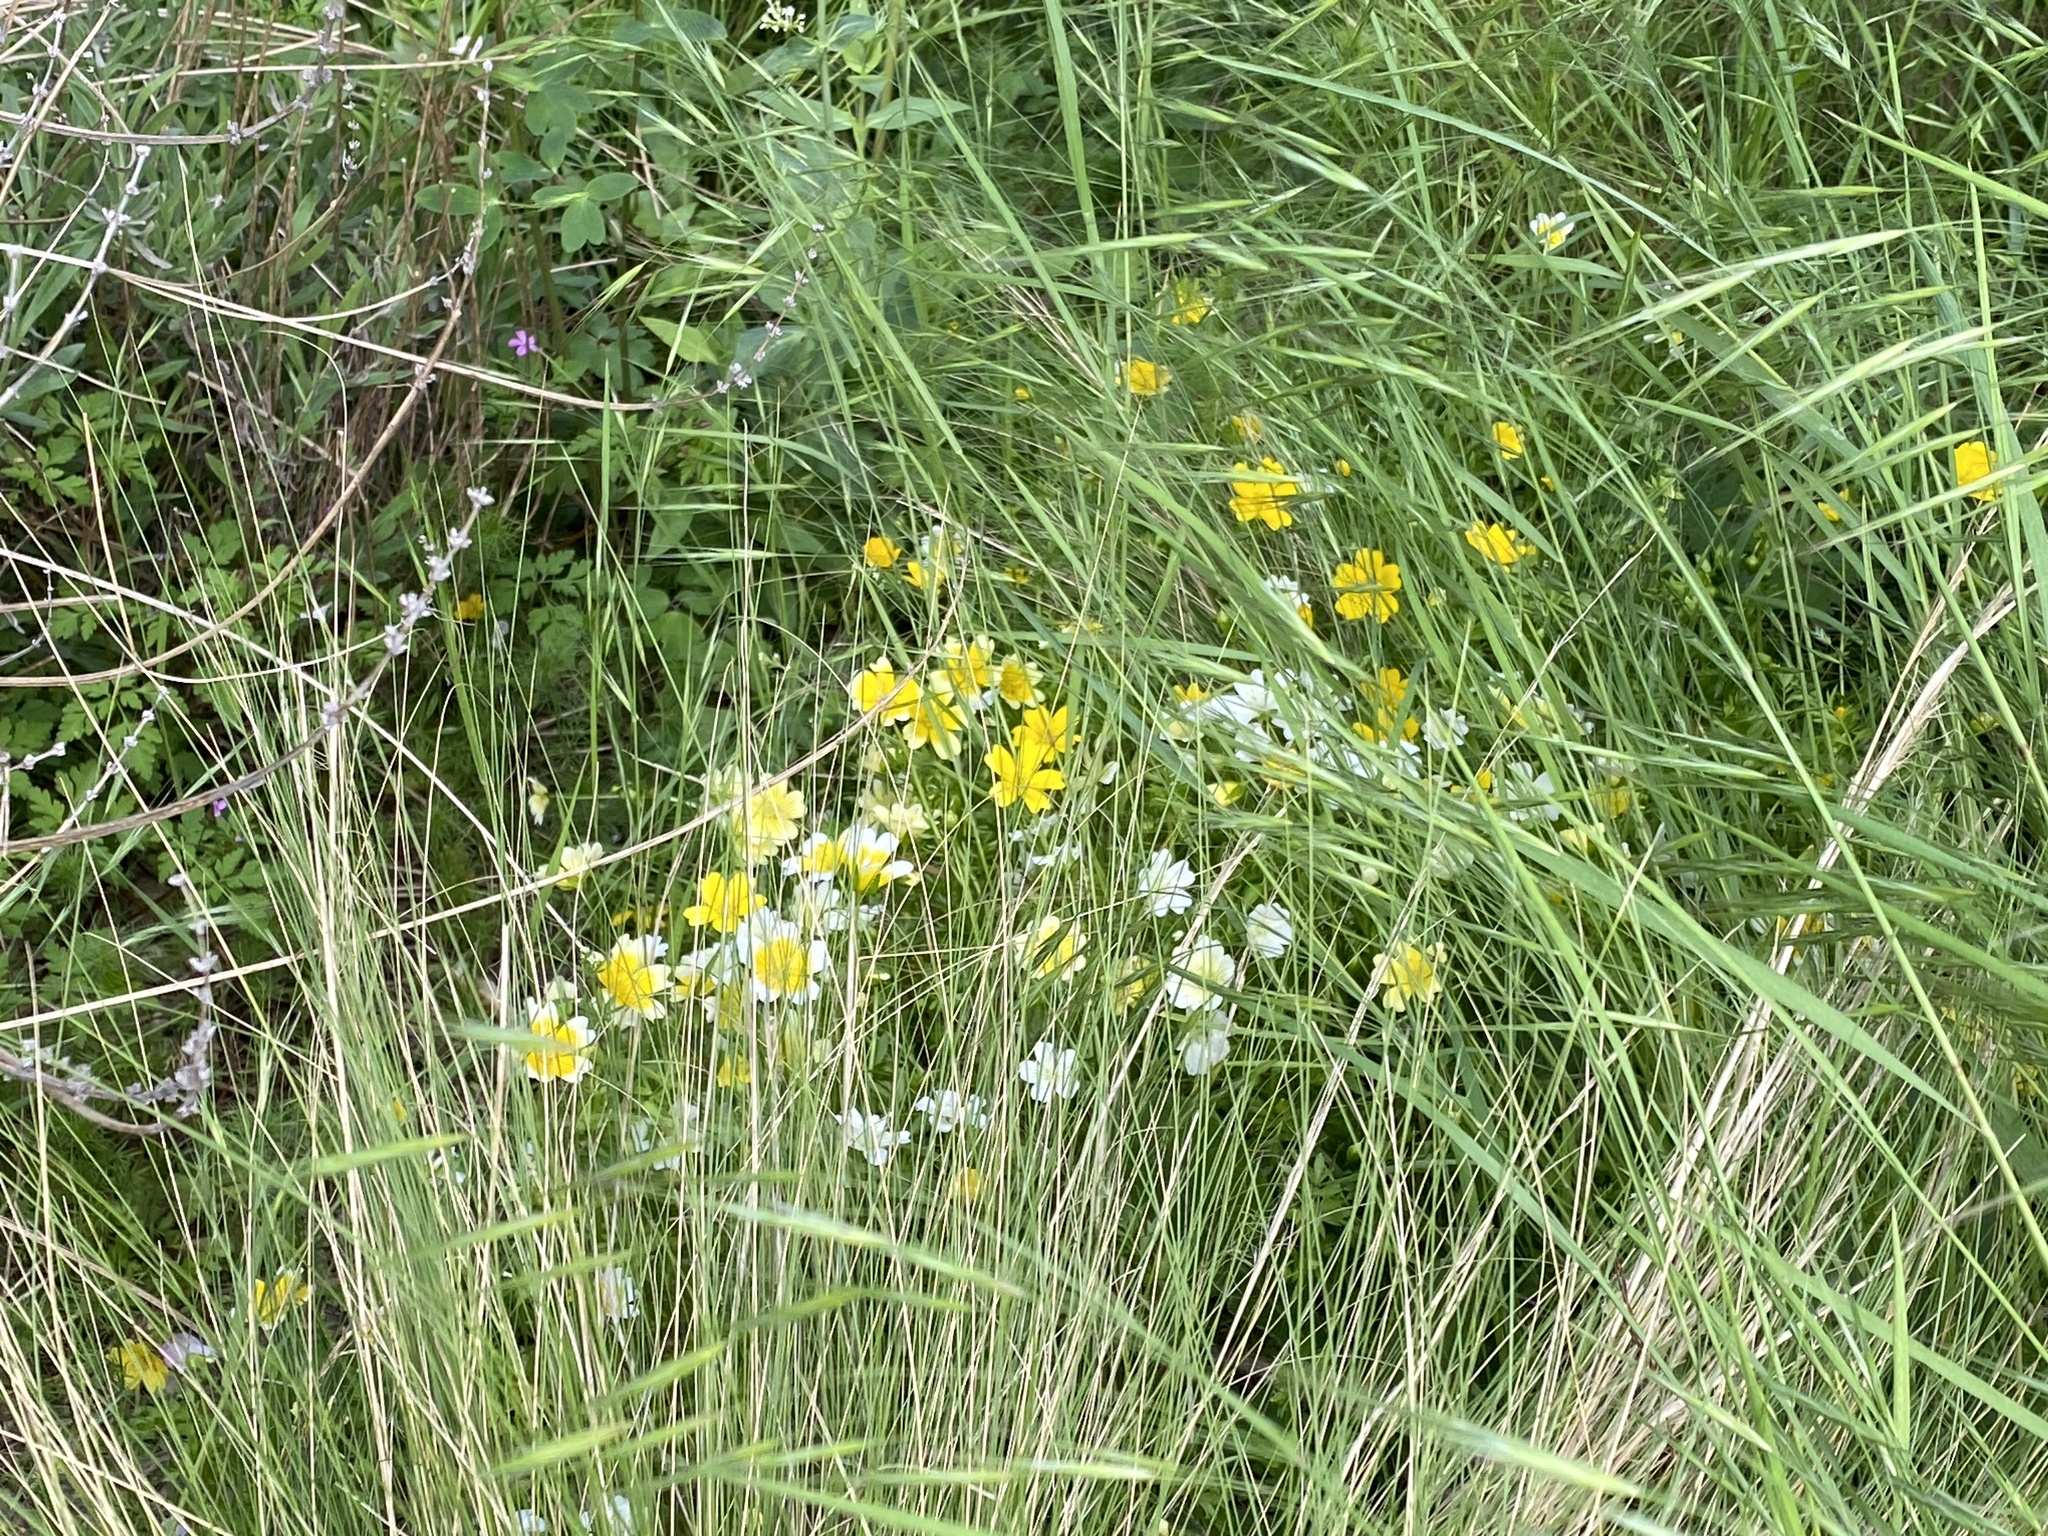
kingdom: Plantae
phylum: Tracheophyta
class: Magnoliopsida
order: Brassicales
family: Limnanthaceae
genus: Limnanthes
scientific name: Limnanthes douglasii
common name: Meadow-foam
